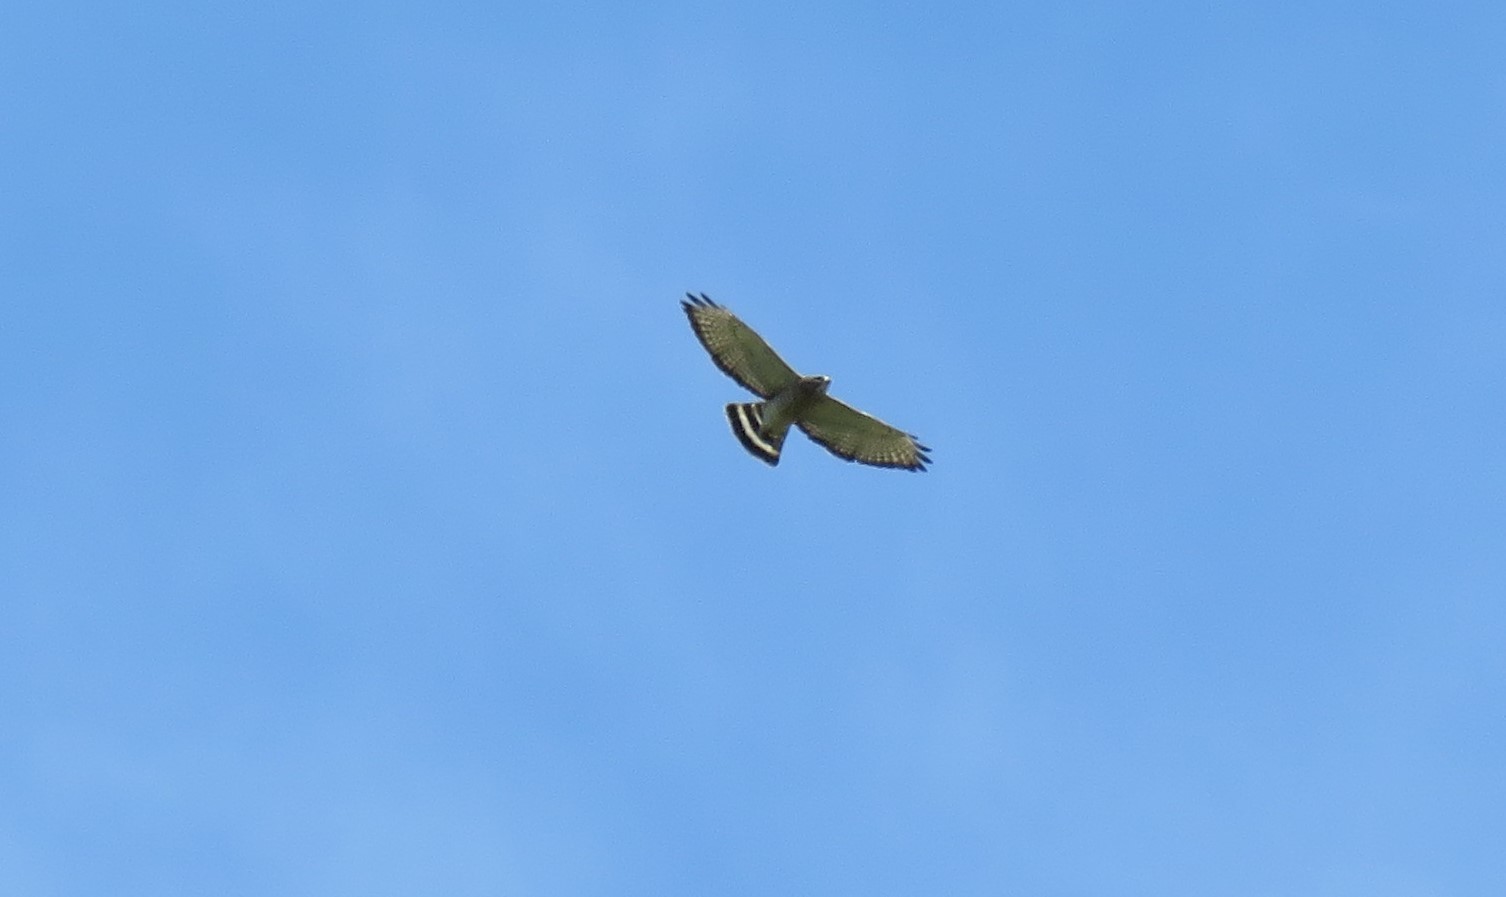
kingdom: Animalia
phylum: Chordata
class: Aves
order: Accipitriformes
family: Accipitridae
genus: Buteo
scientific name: Buteo platypterus
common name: Broad-winged hawk
